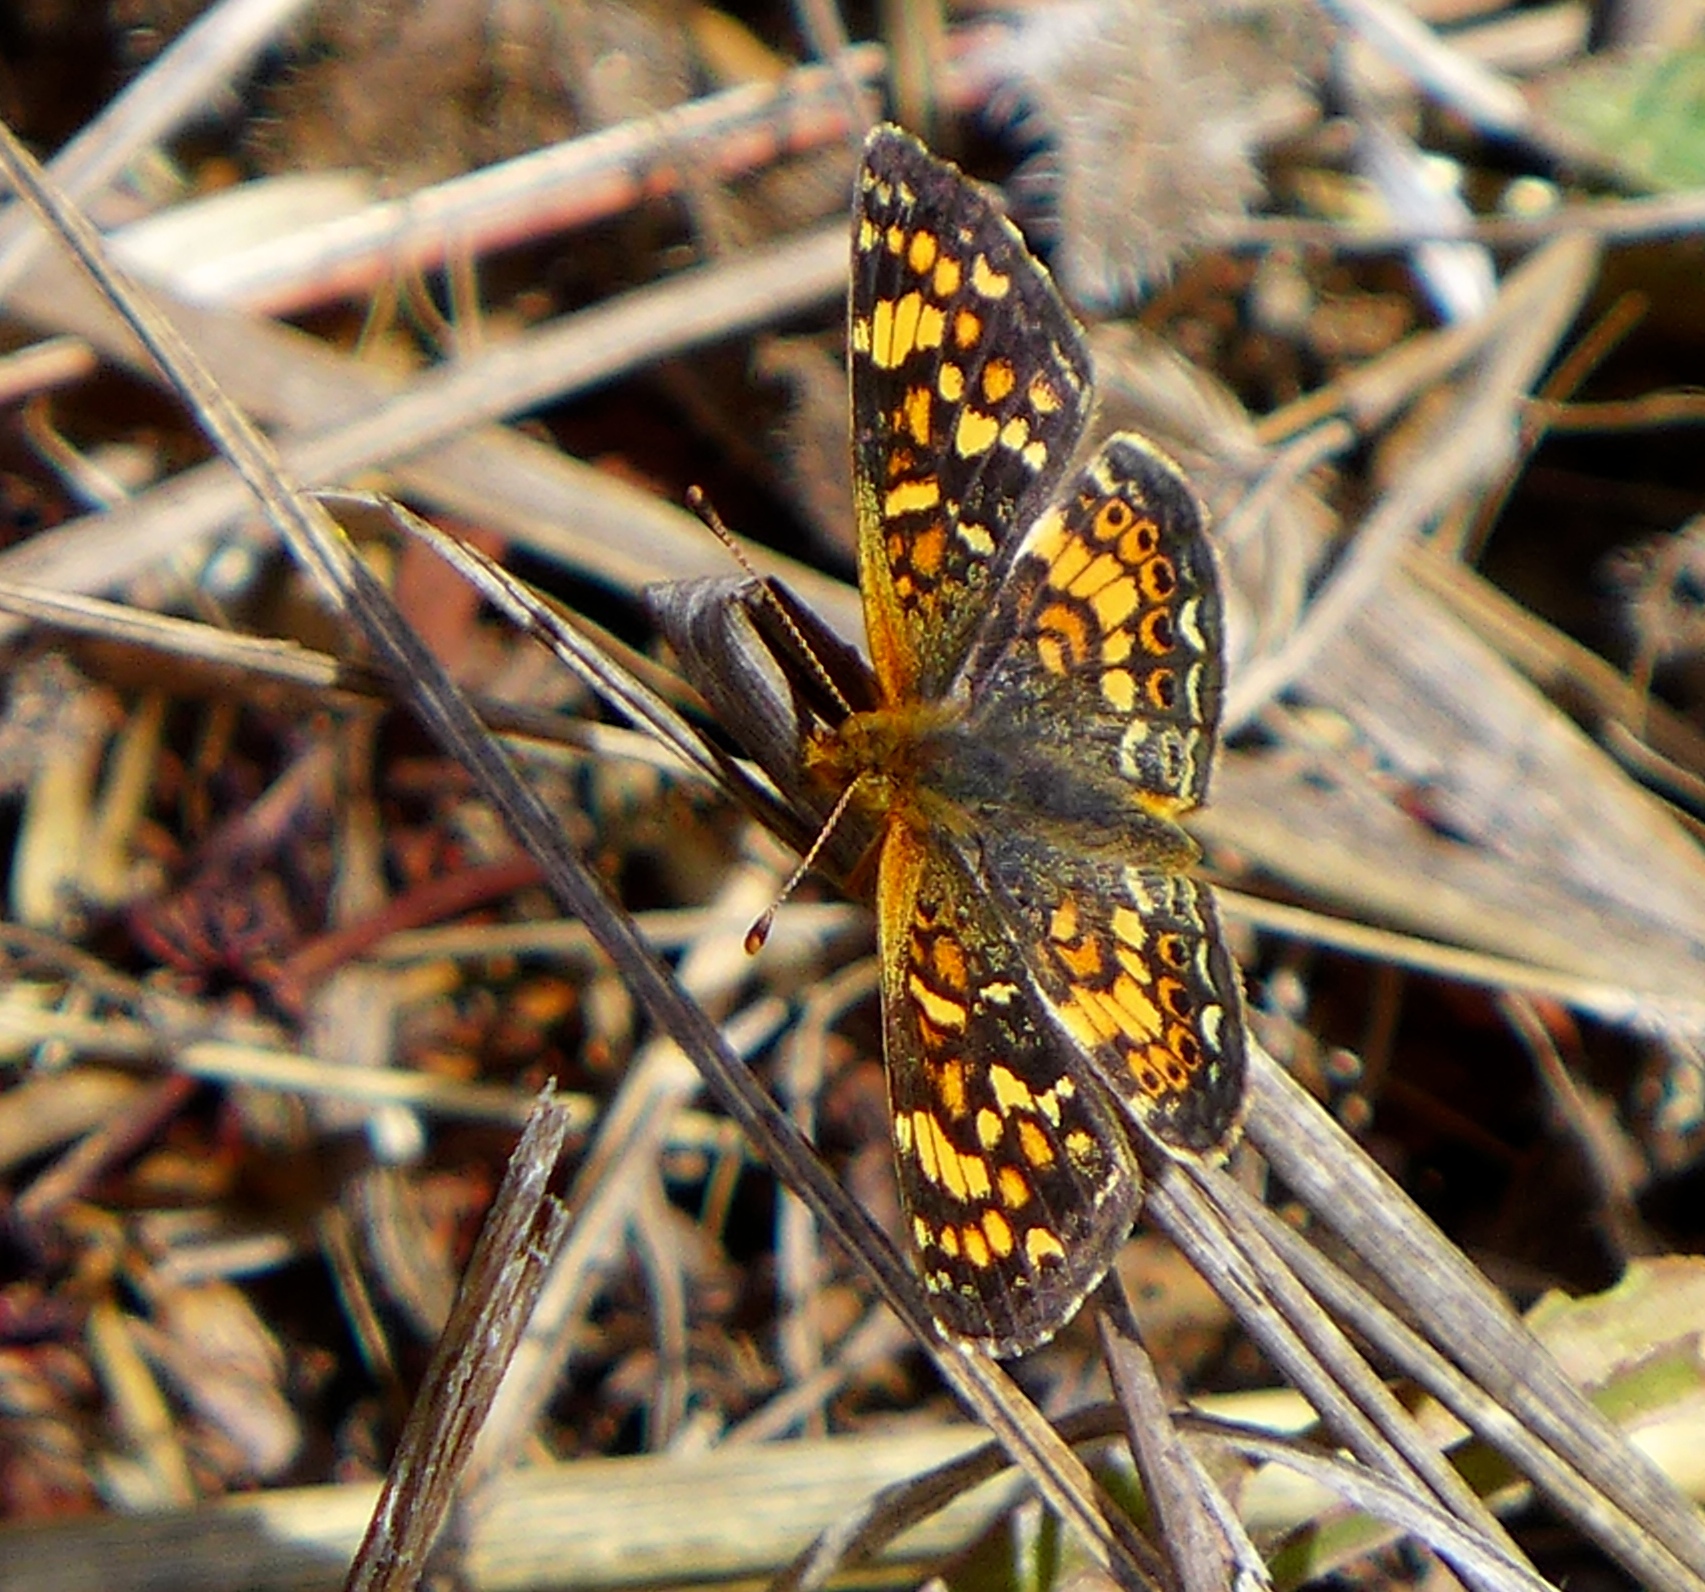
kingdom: Animalia
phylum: Arthropoda
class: Insecta
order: Lepidoptera
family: Nymphalidae
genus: Phyciodes
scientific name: Phyciodes tharos
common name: Pearl crescent
